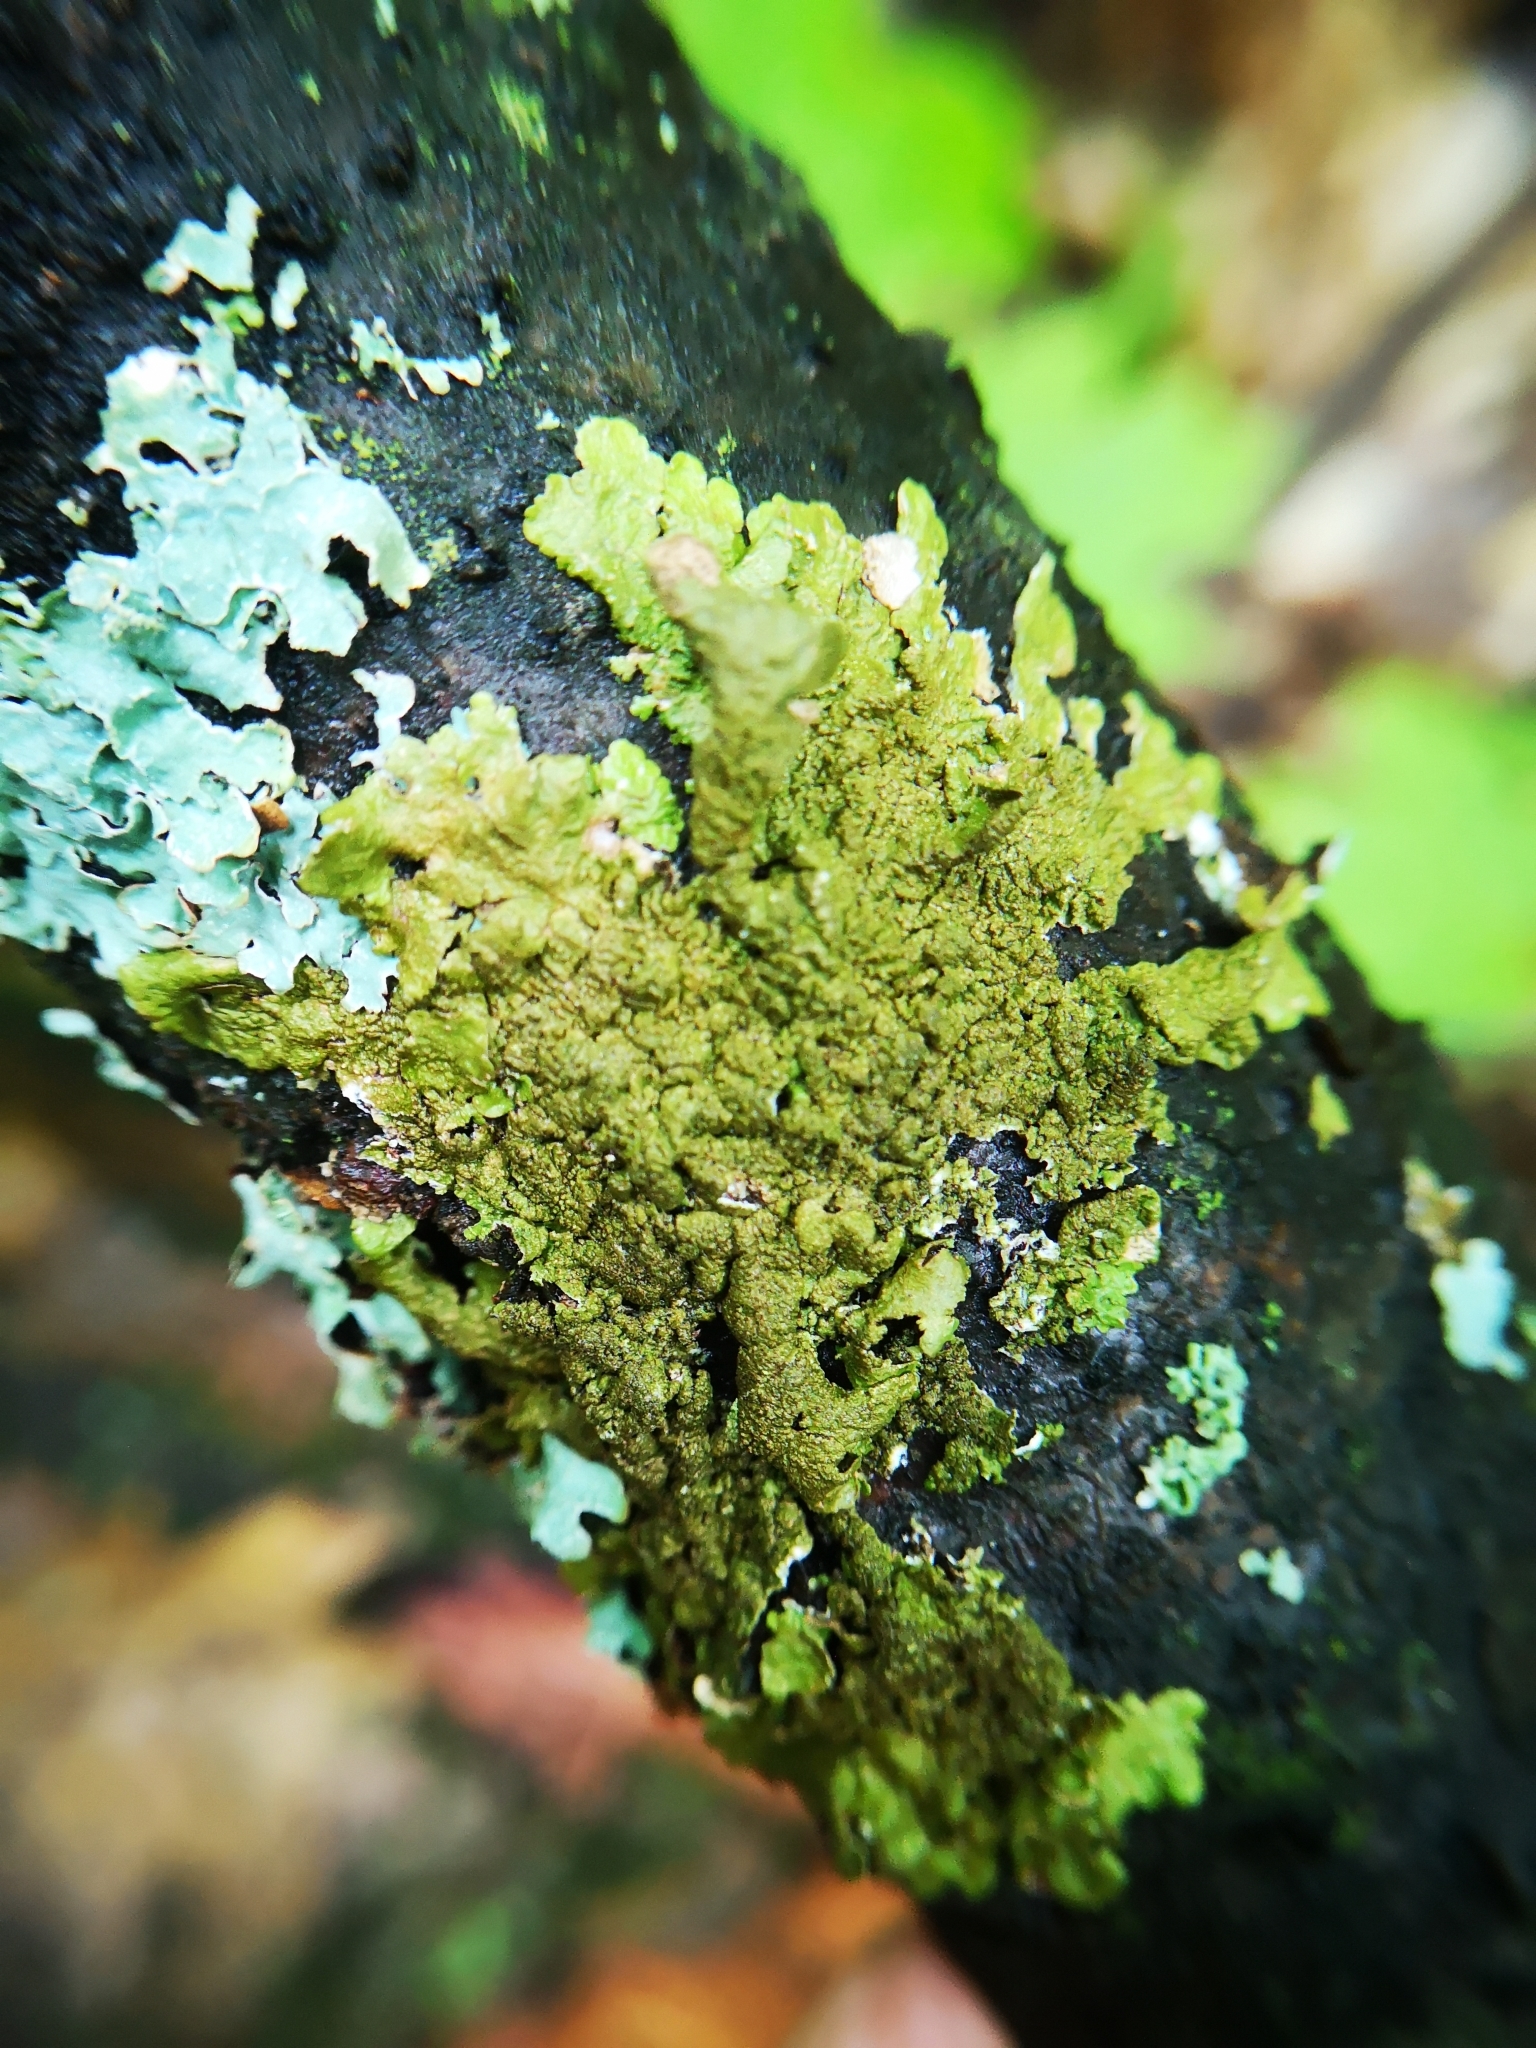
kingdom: Fungi
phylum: Ascomycota
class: Lecanoromycetes
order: Lecanorales
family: Parmeliaceae
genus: Melanelixia
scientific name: Melanelixia subaurifera
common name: Abraded camouflage lichen
